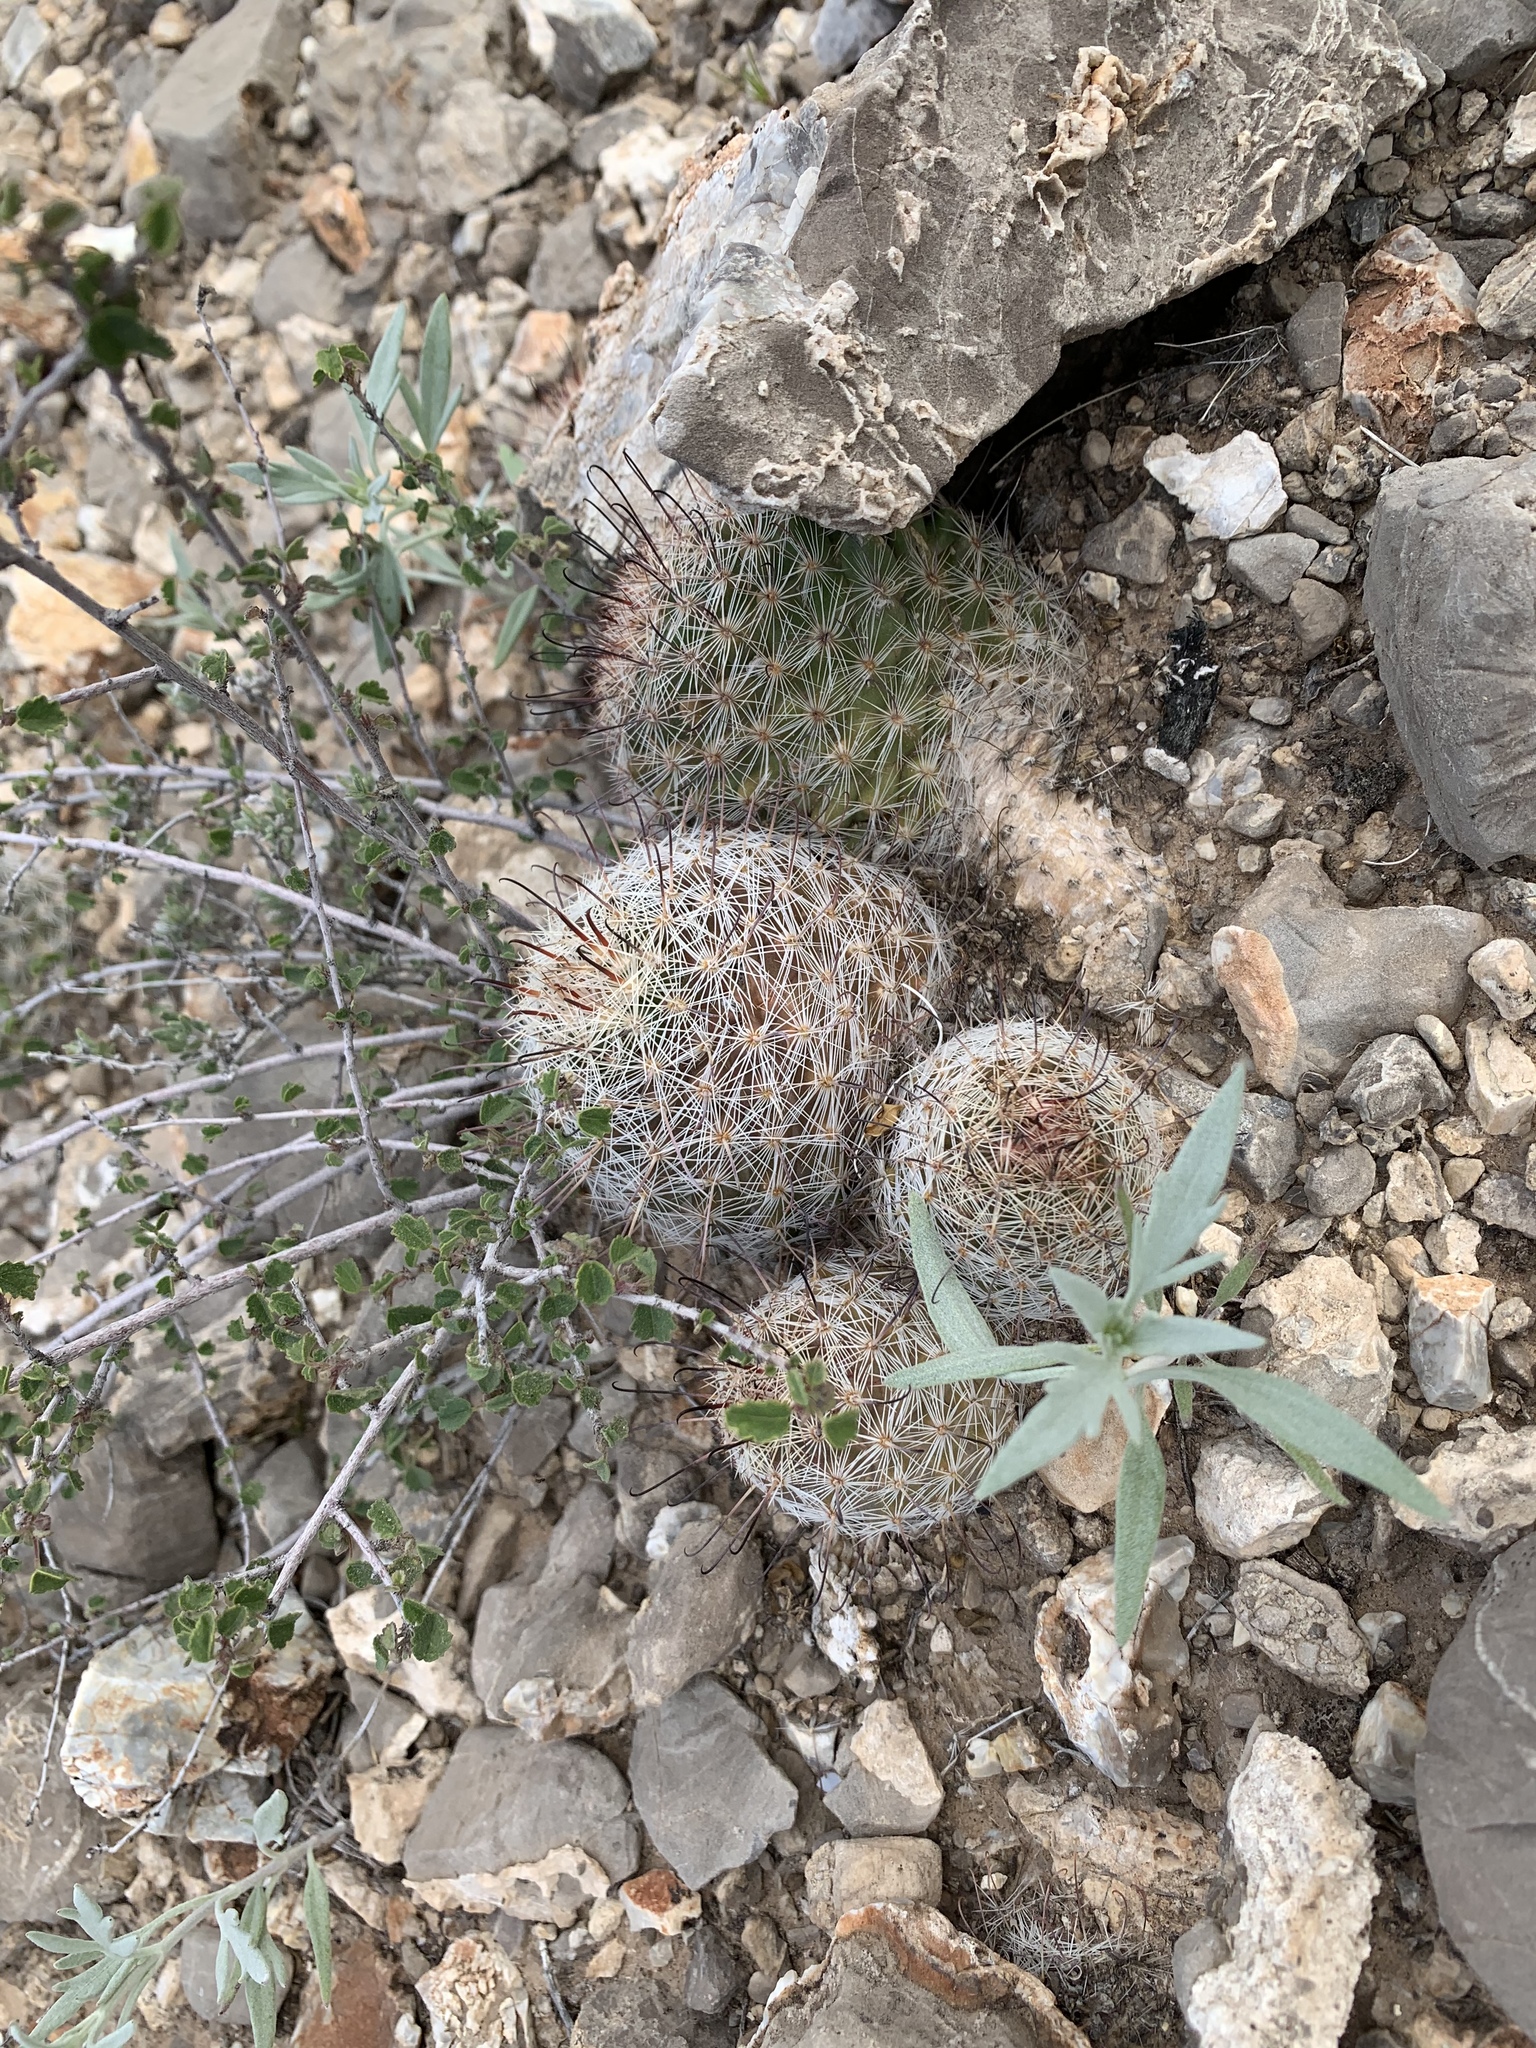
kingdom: Plantae
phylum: Tracheophyta
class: Magnoliopsida
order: Caryophyllales
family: Cactaceae
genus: Cochemiea
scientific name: Cochemiea grahamii
